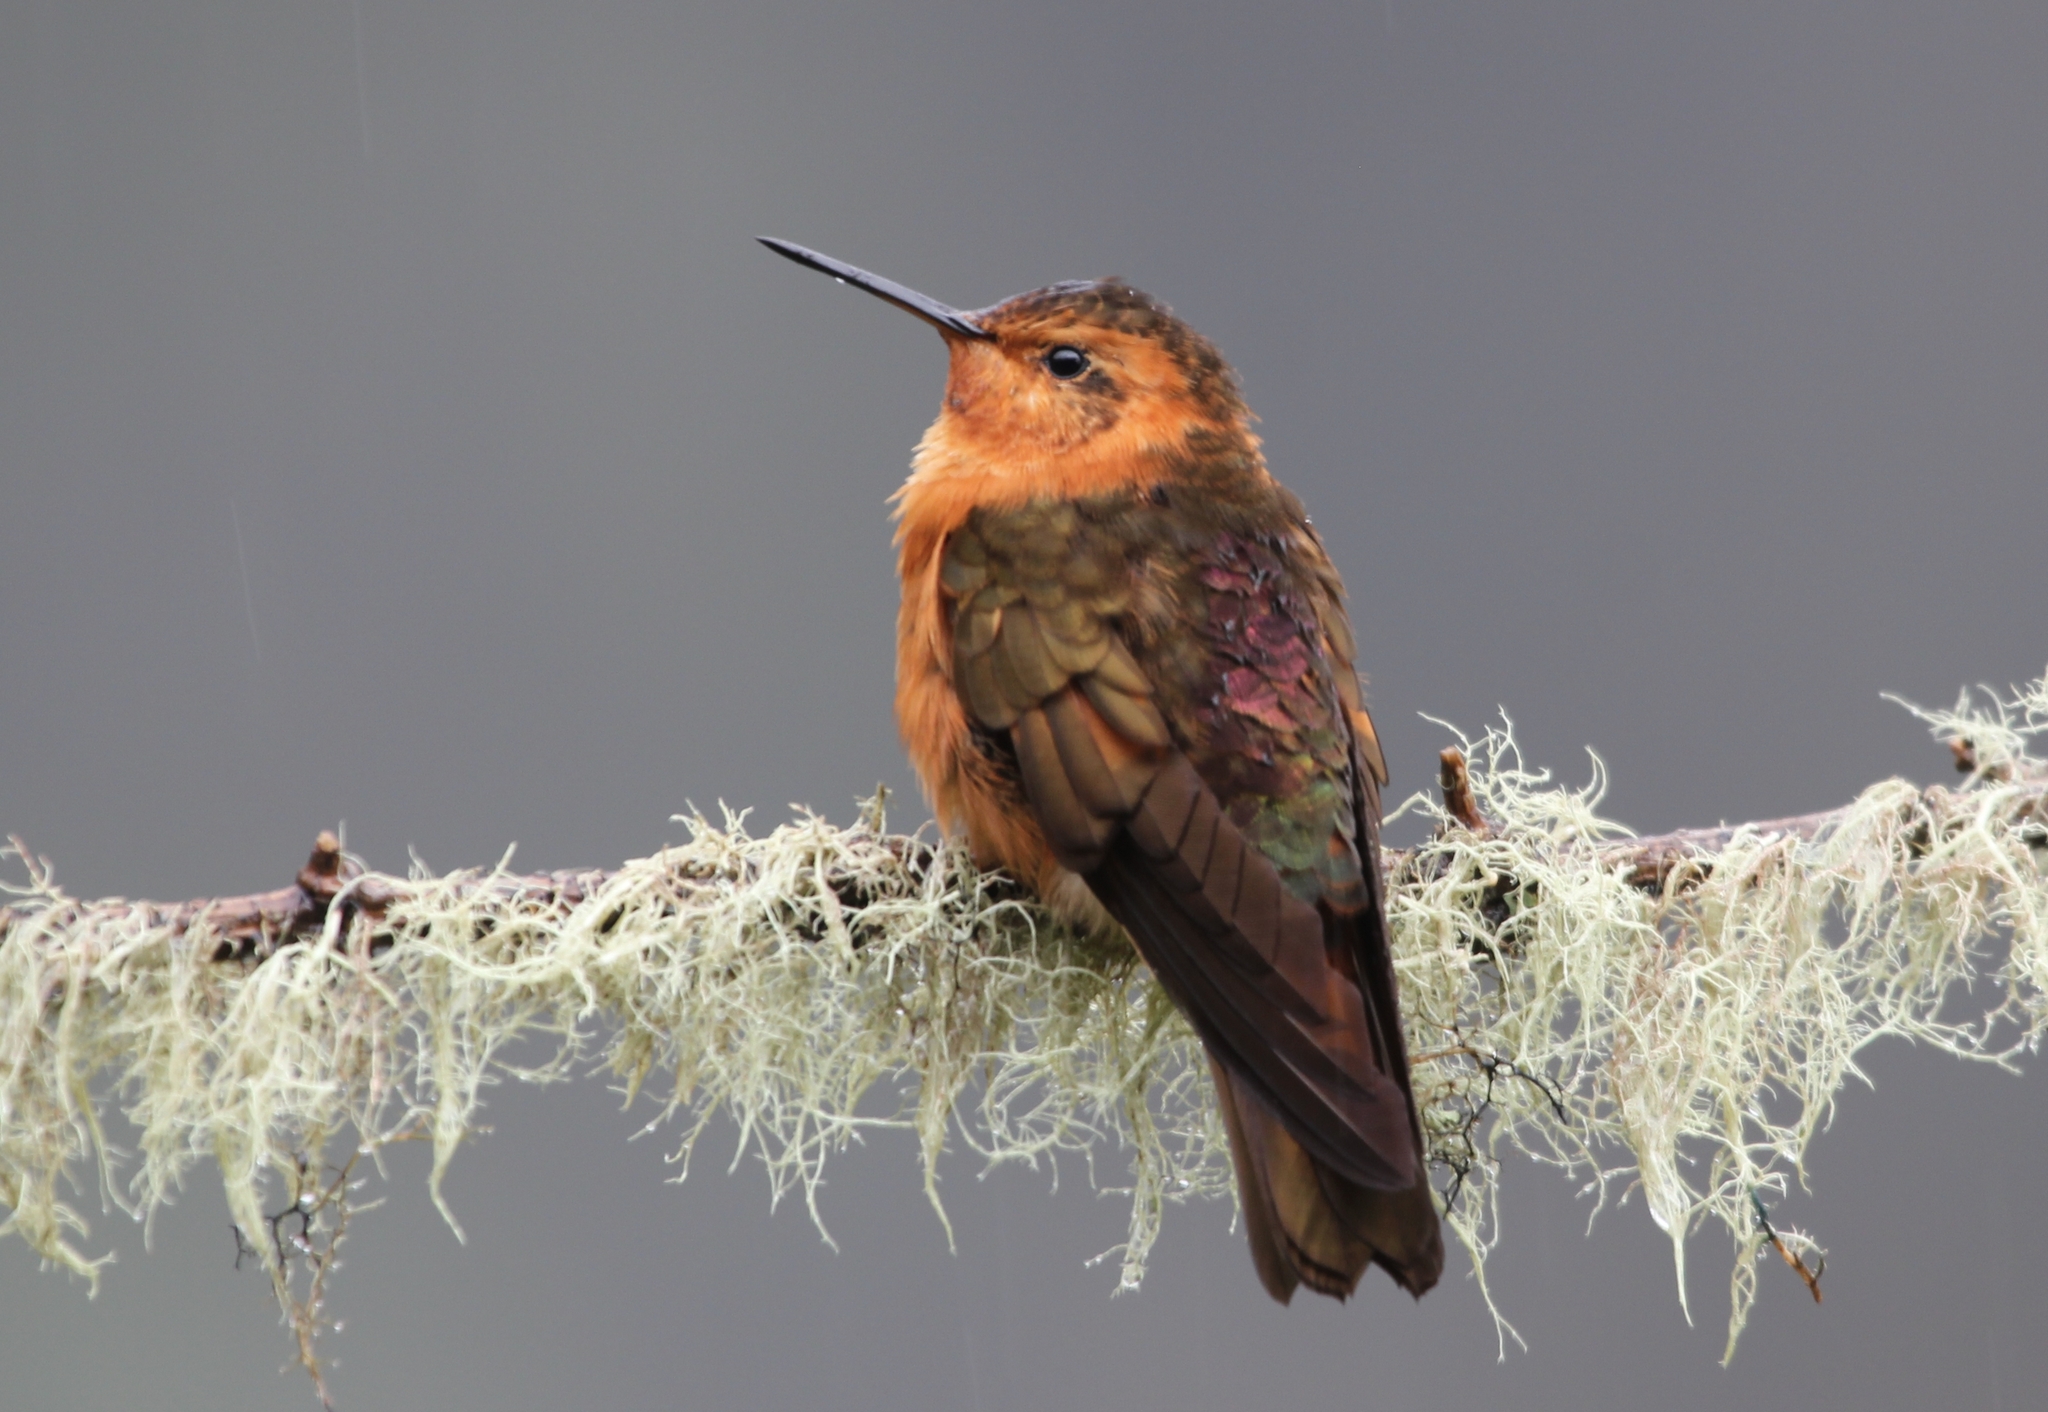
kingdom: Animalia
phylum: Chordata
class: Aves
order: Apodiformes
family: Trochilidae
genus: Aglaeactis
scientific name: Aglaeactis cupripennis
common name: Shining sunbeam
